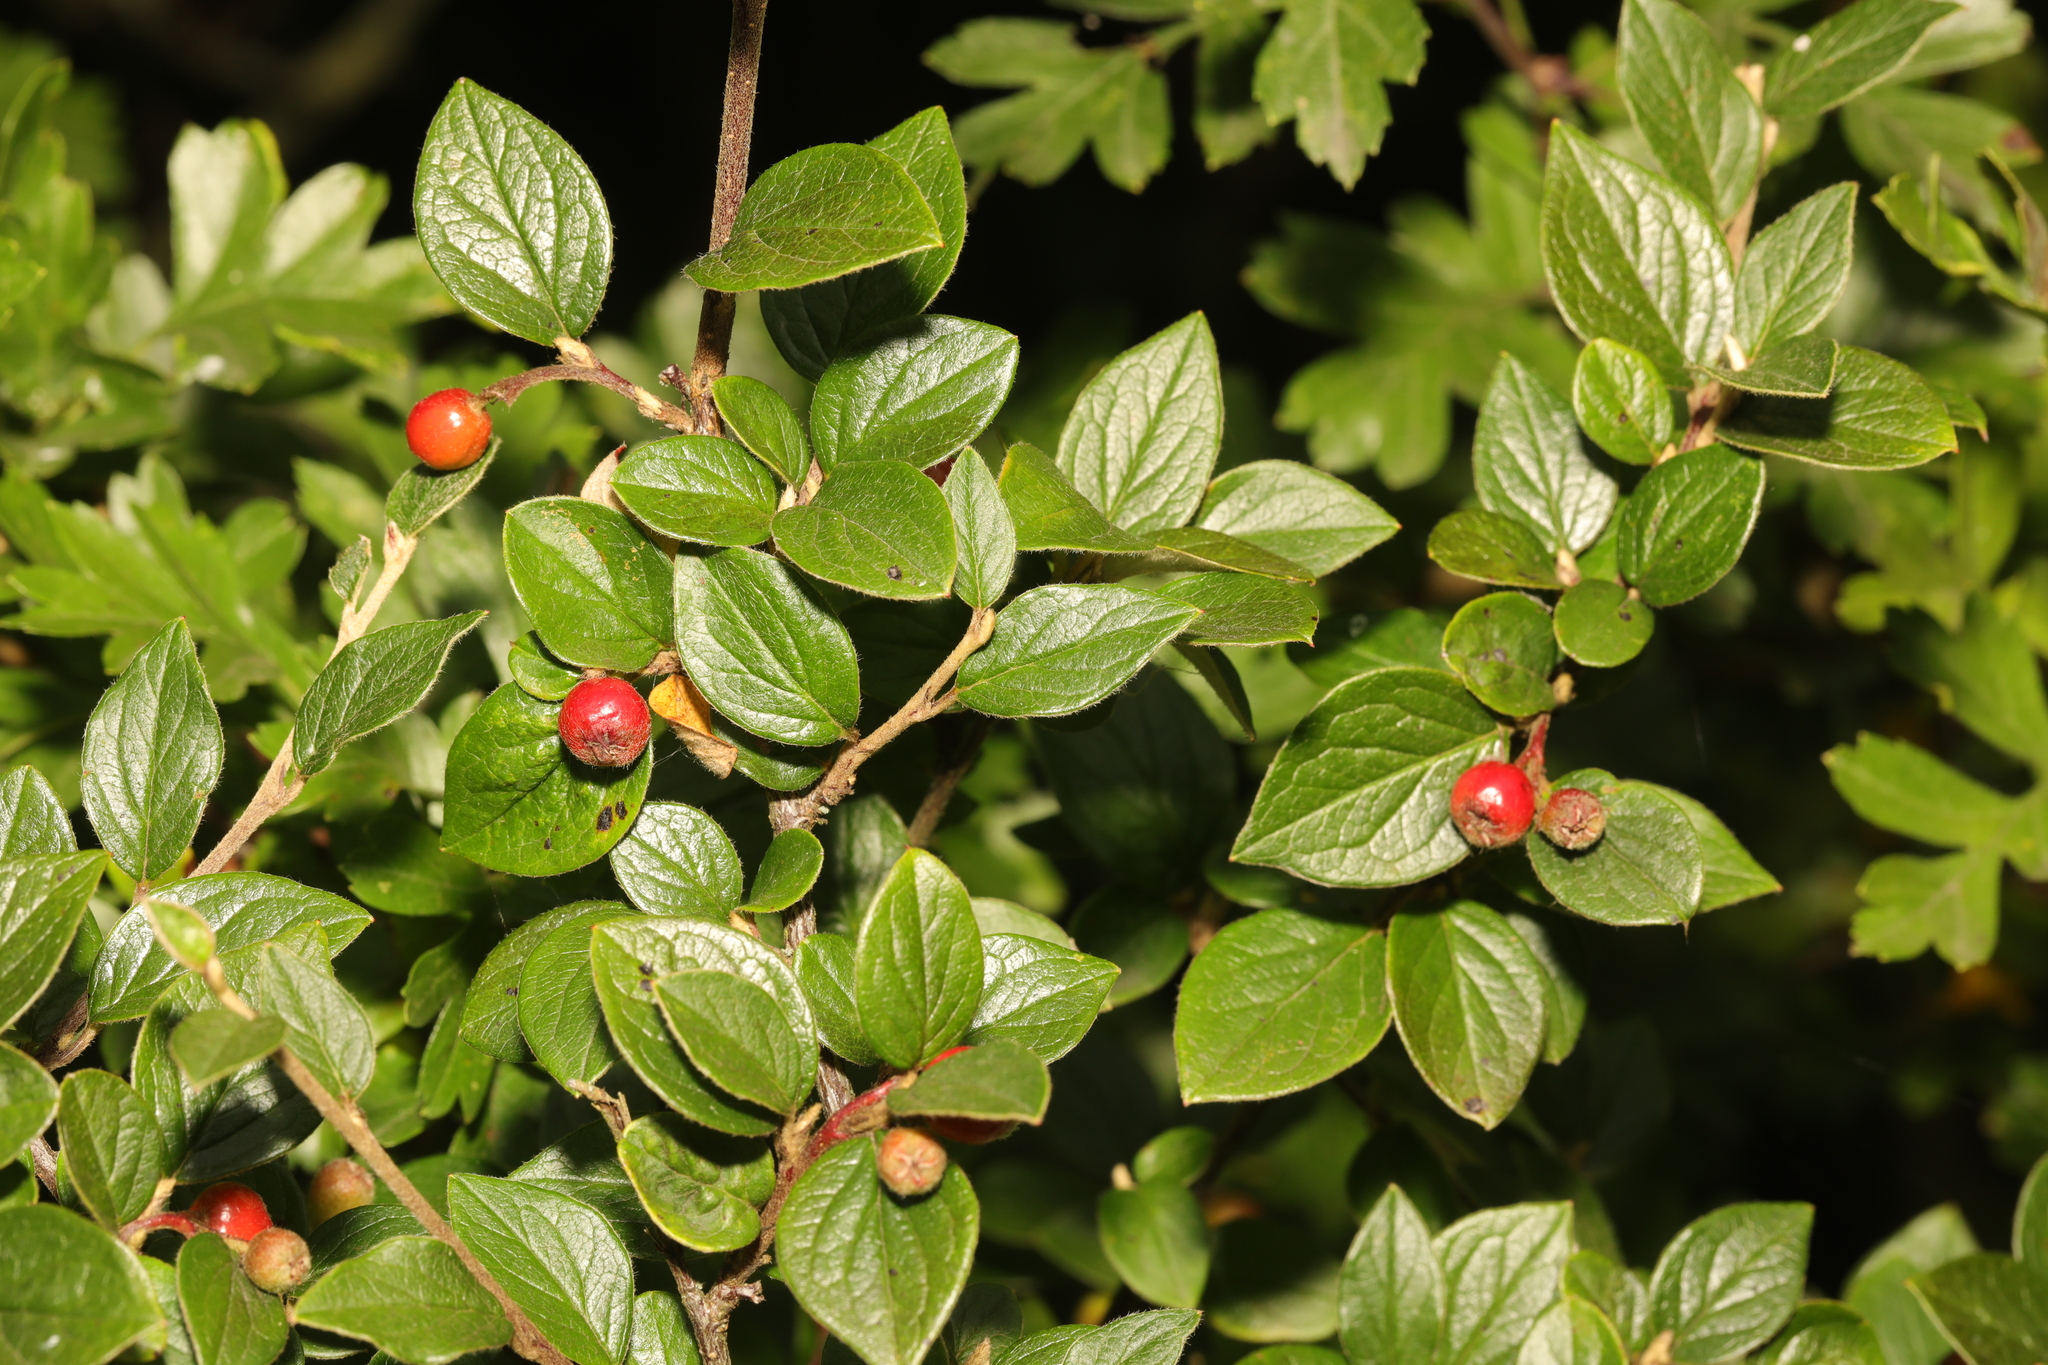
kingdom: Plantae
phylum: Tracheophyta
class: Magnoliopsida
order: Rosales
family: Rosaceae
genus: Cotoneaster
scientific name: Cotoneaster dielsianus
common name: Diels's cotoneaster
